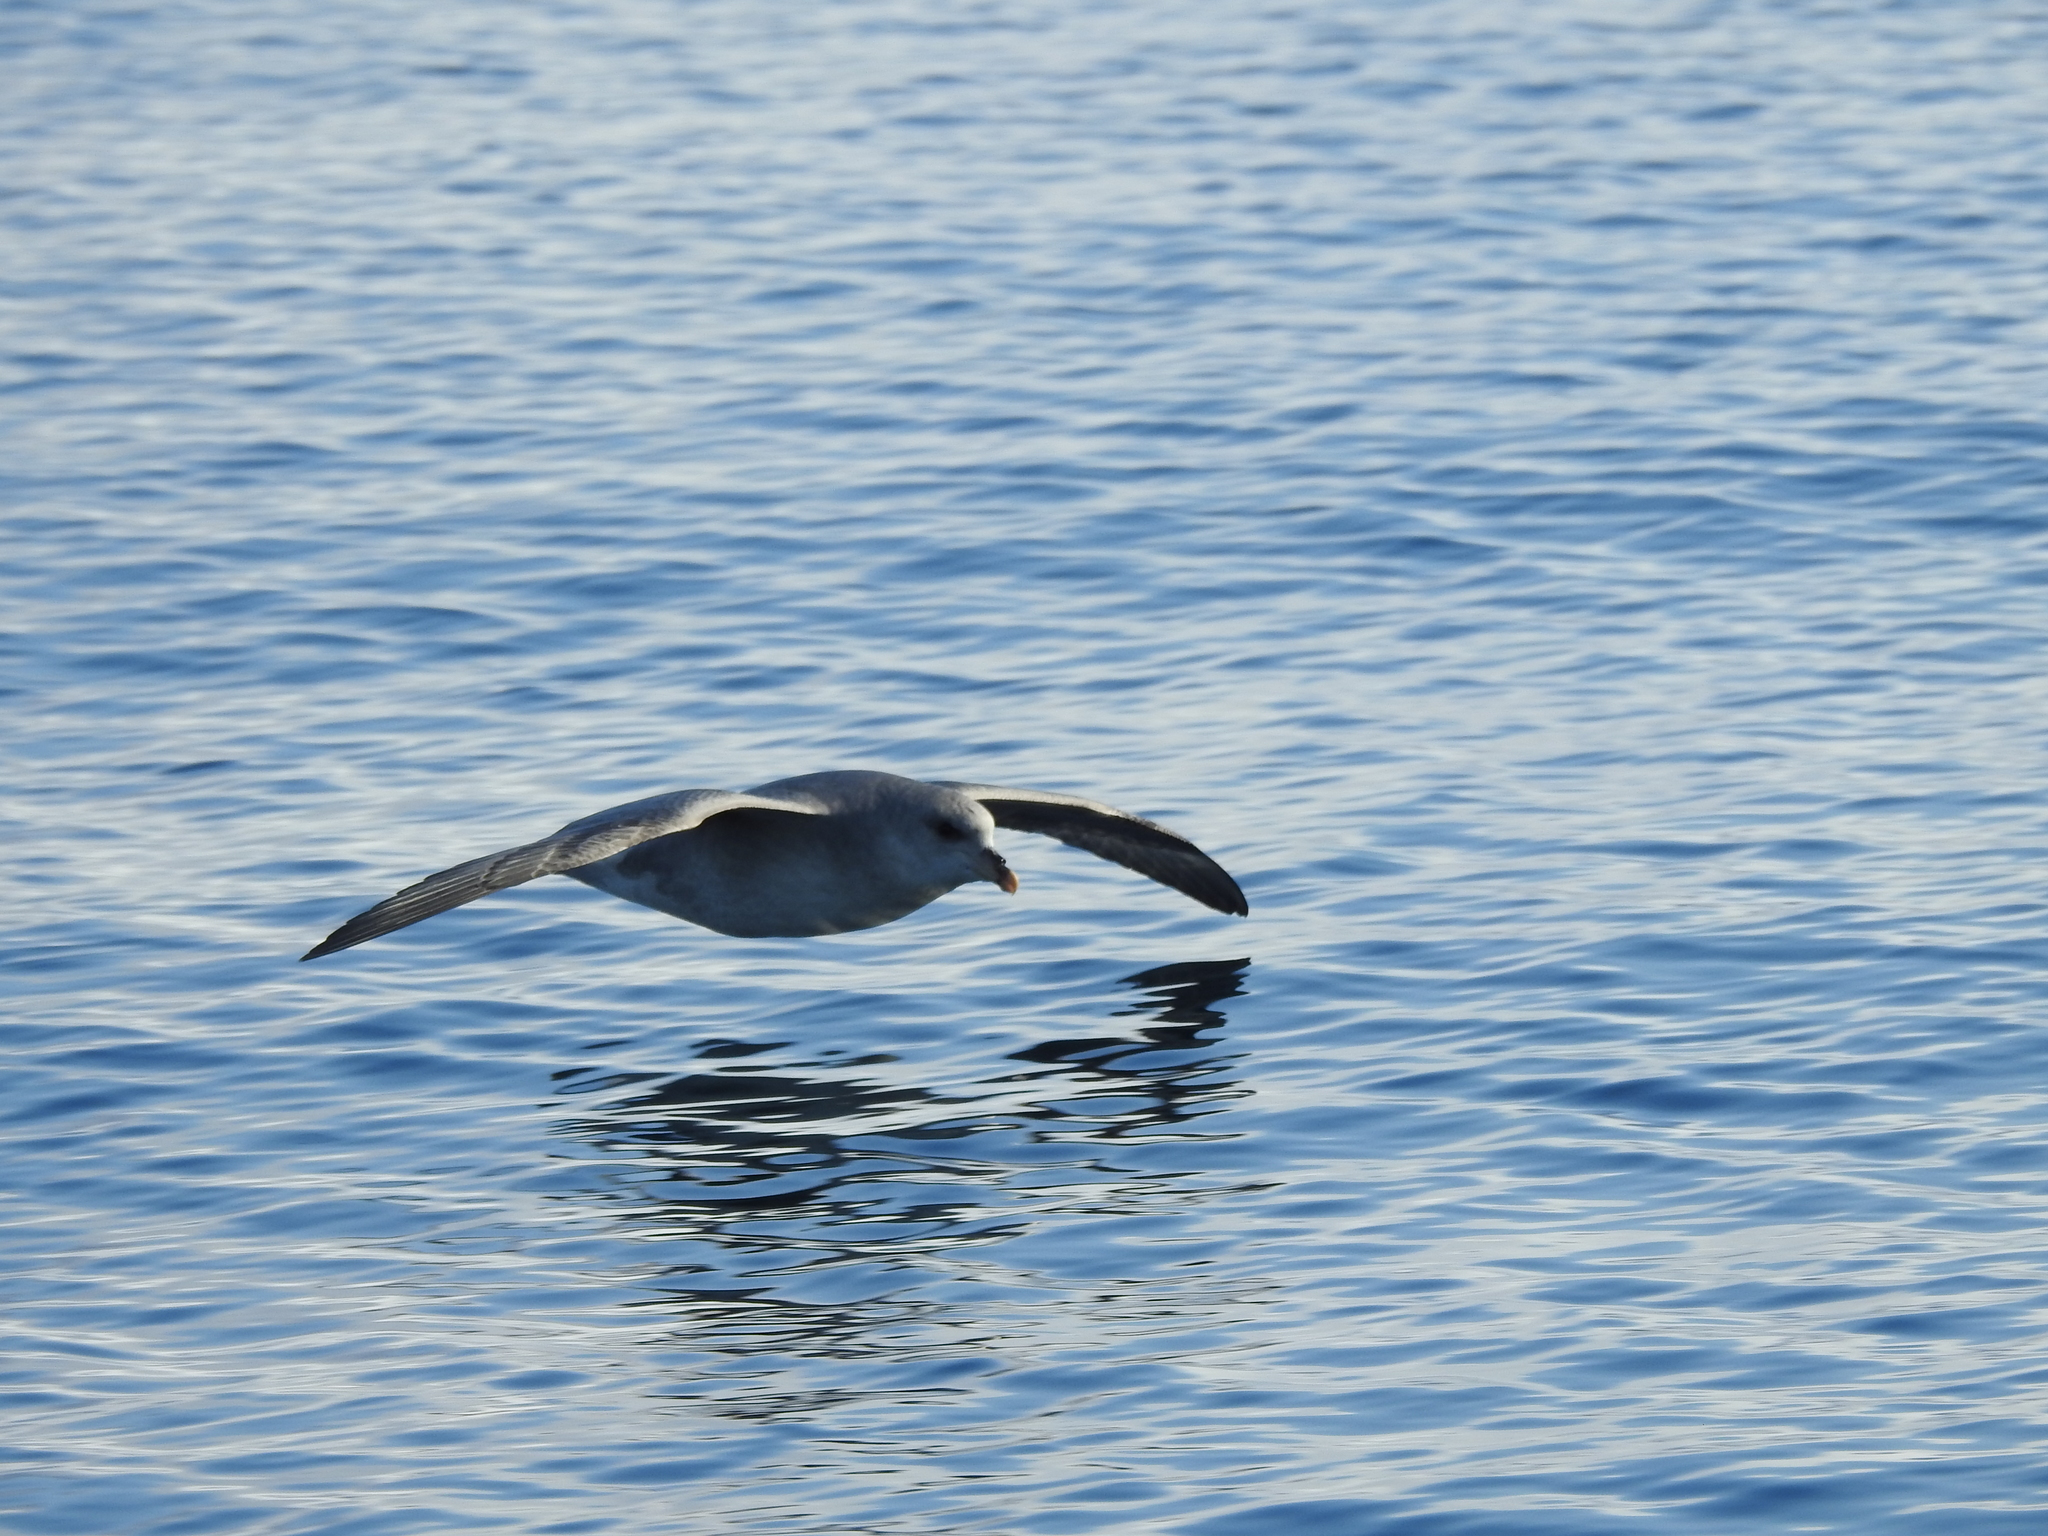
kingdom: Animalia
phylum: Chordata
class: Aves
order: Procellariiformes
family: Procellariidae
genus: Fulmarus
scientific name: Fulmarus glacialis
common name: Northern fulmar
